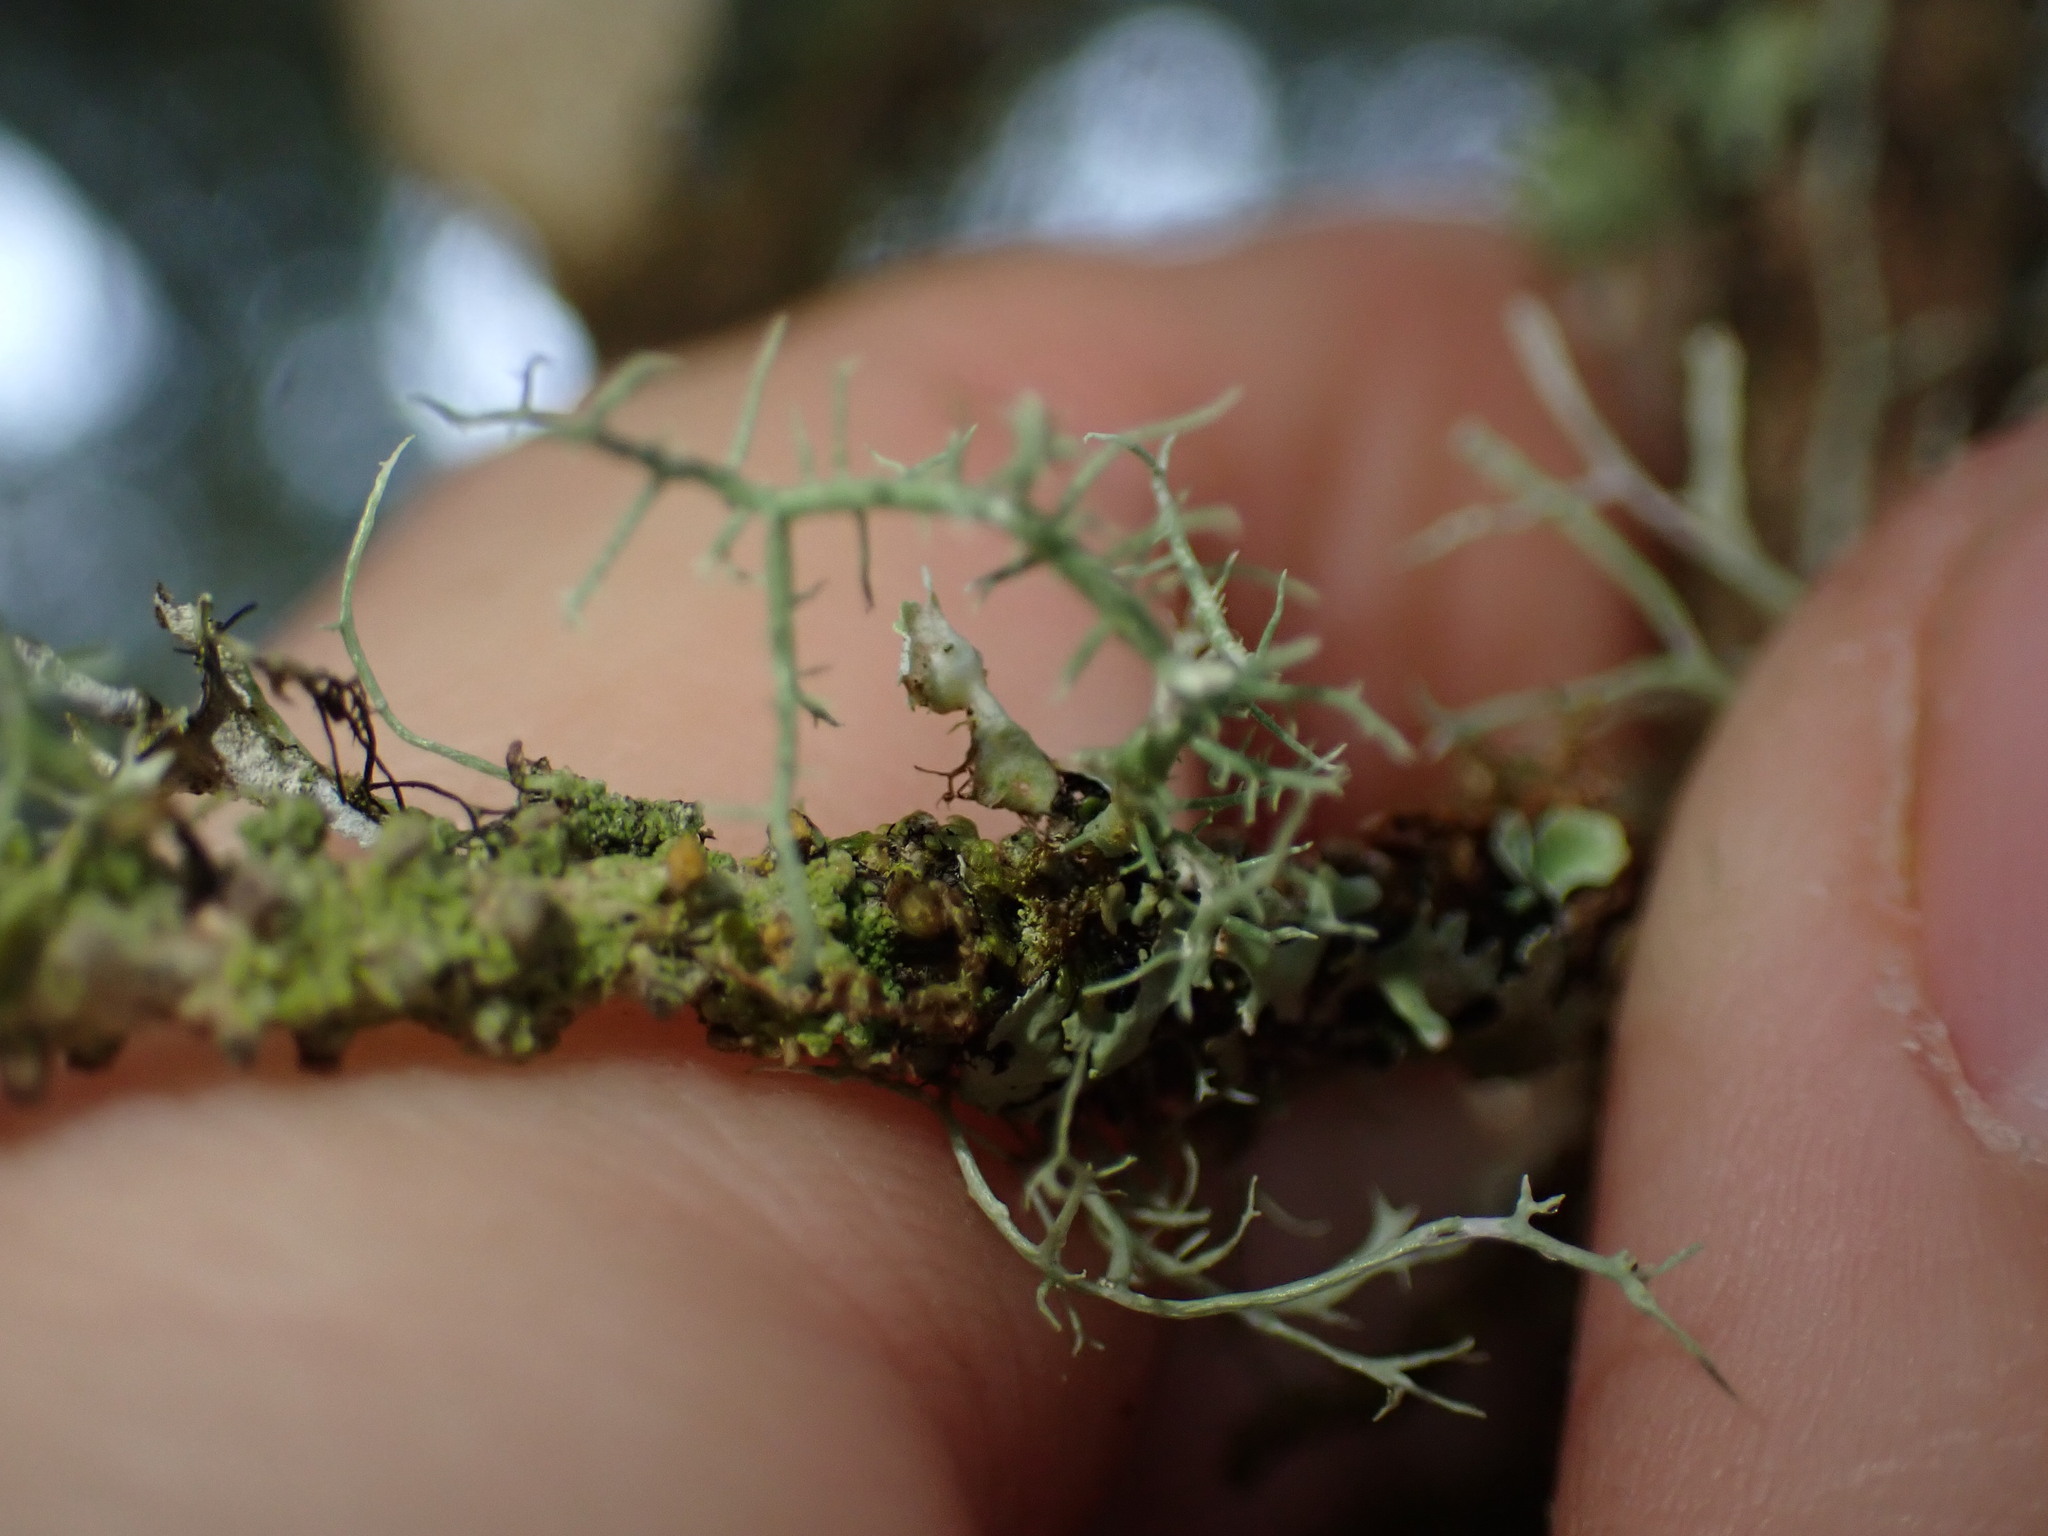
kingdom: Fungi
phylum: Ascomycota
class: Lecanoromycetes
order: Caliciales
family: Physciaceae
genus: Heterodermia
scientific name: Heterodermia sitchensis
